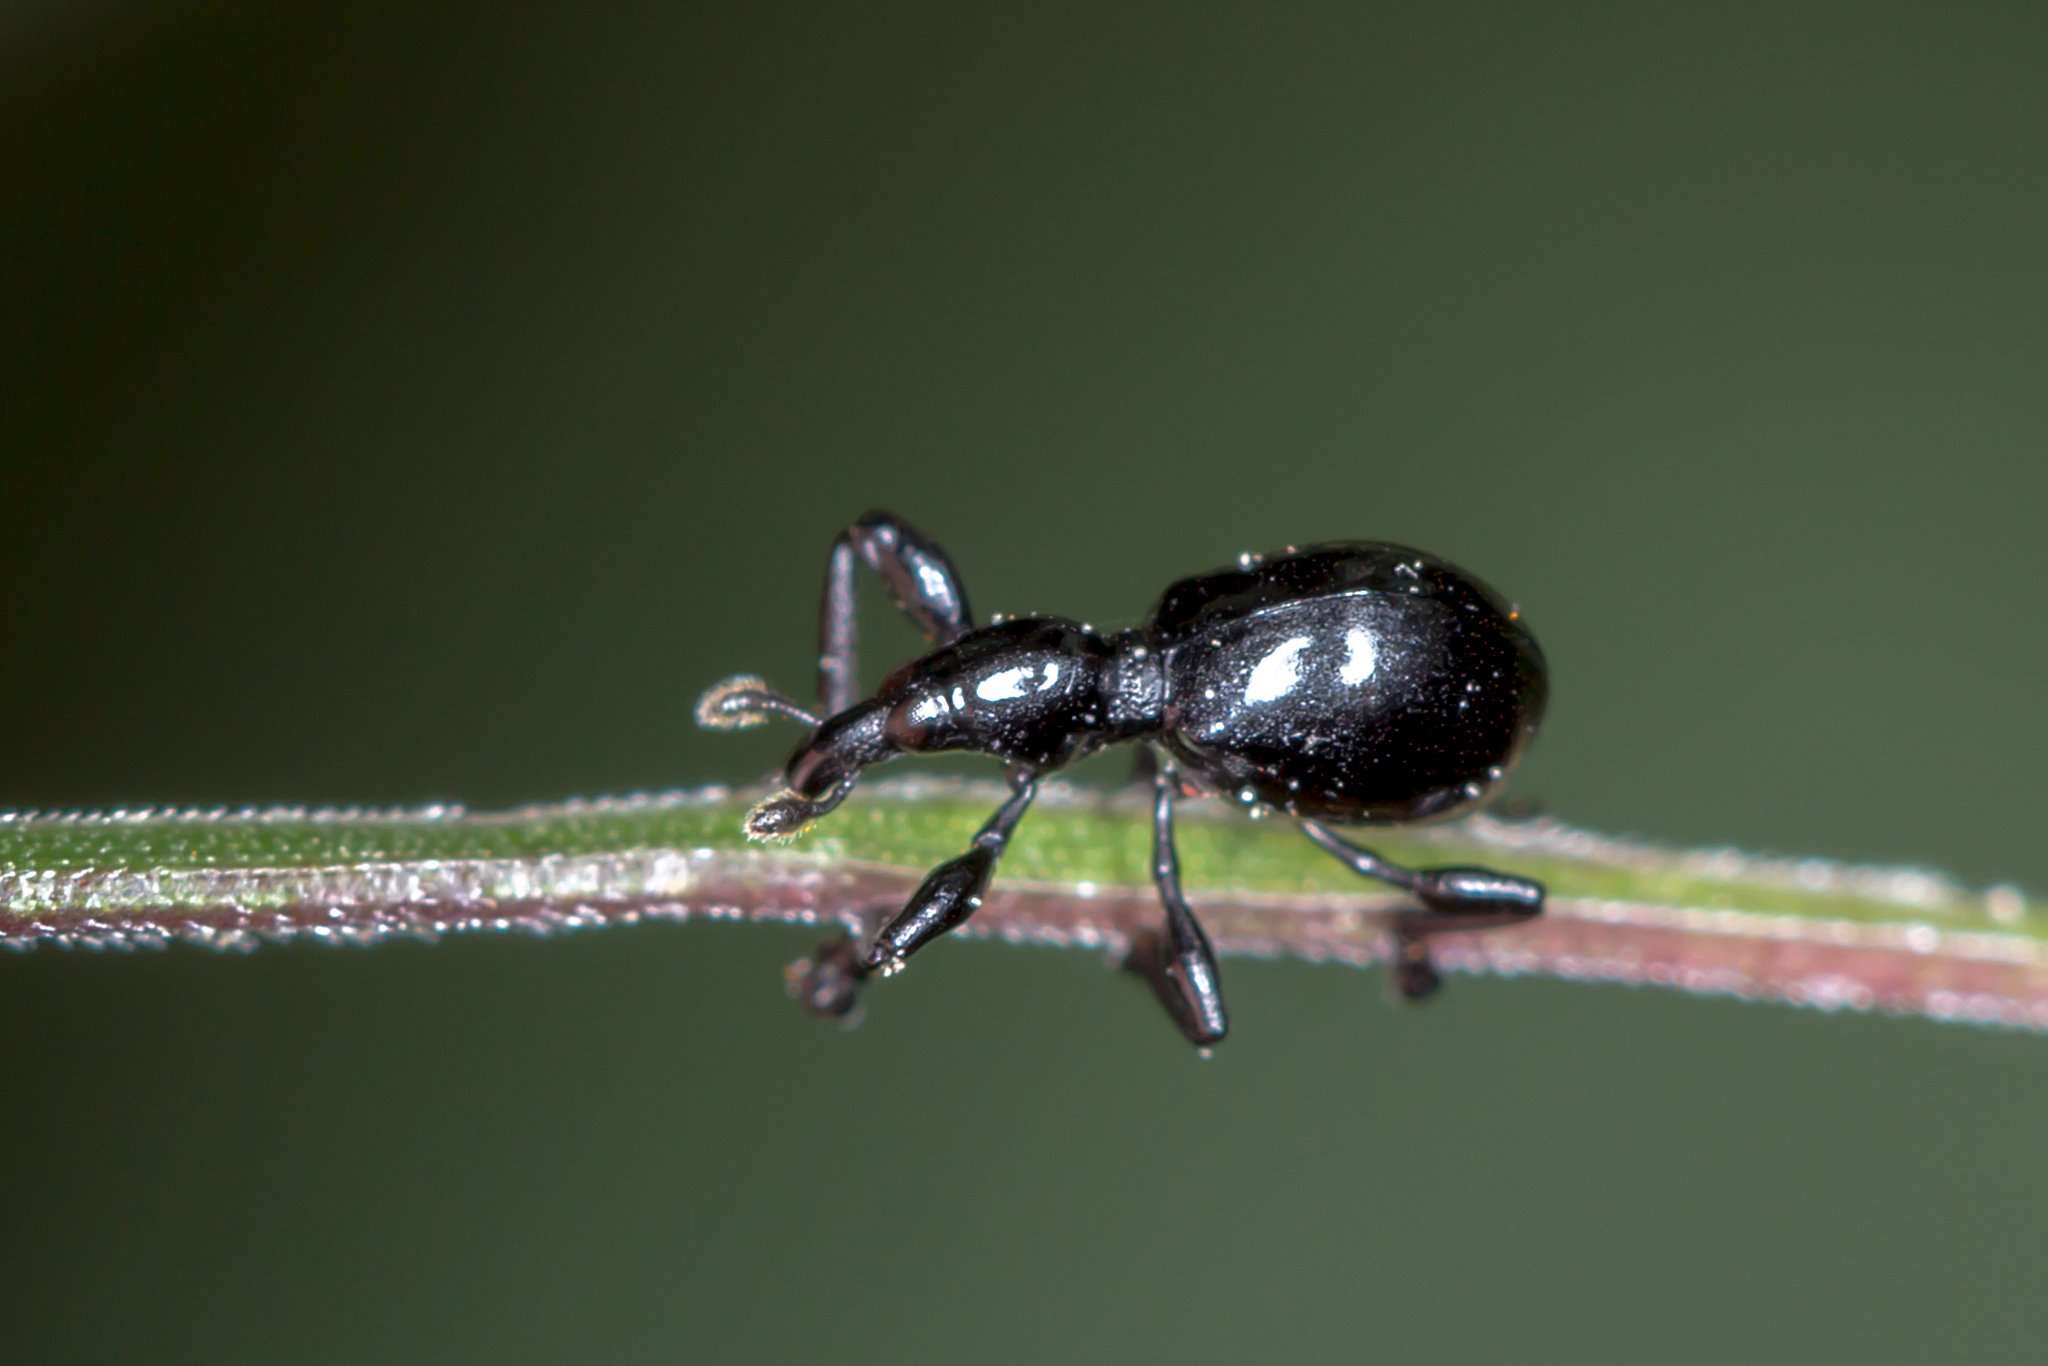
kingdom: Animalia
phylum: Arthropoda
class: Insecta
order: Coleoptera
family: Brentidae
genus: Rhynolaccus
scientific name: Rhynolaccus formicarius
